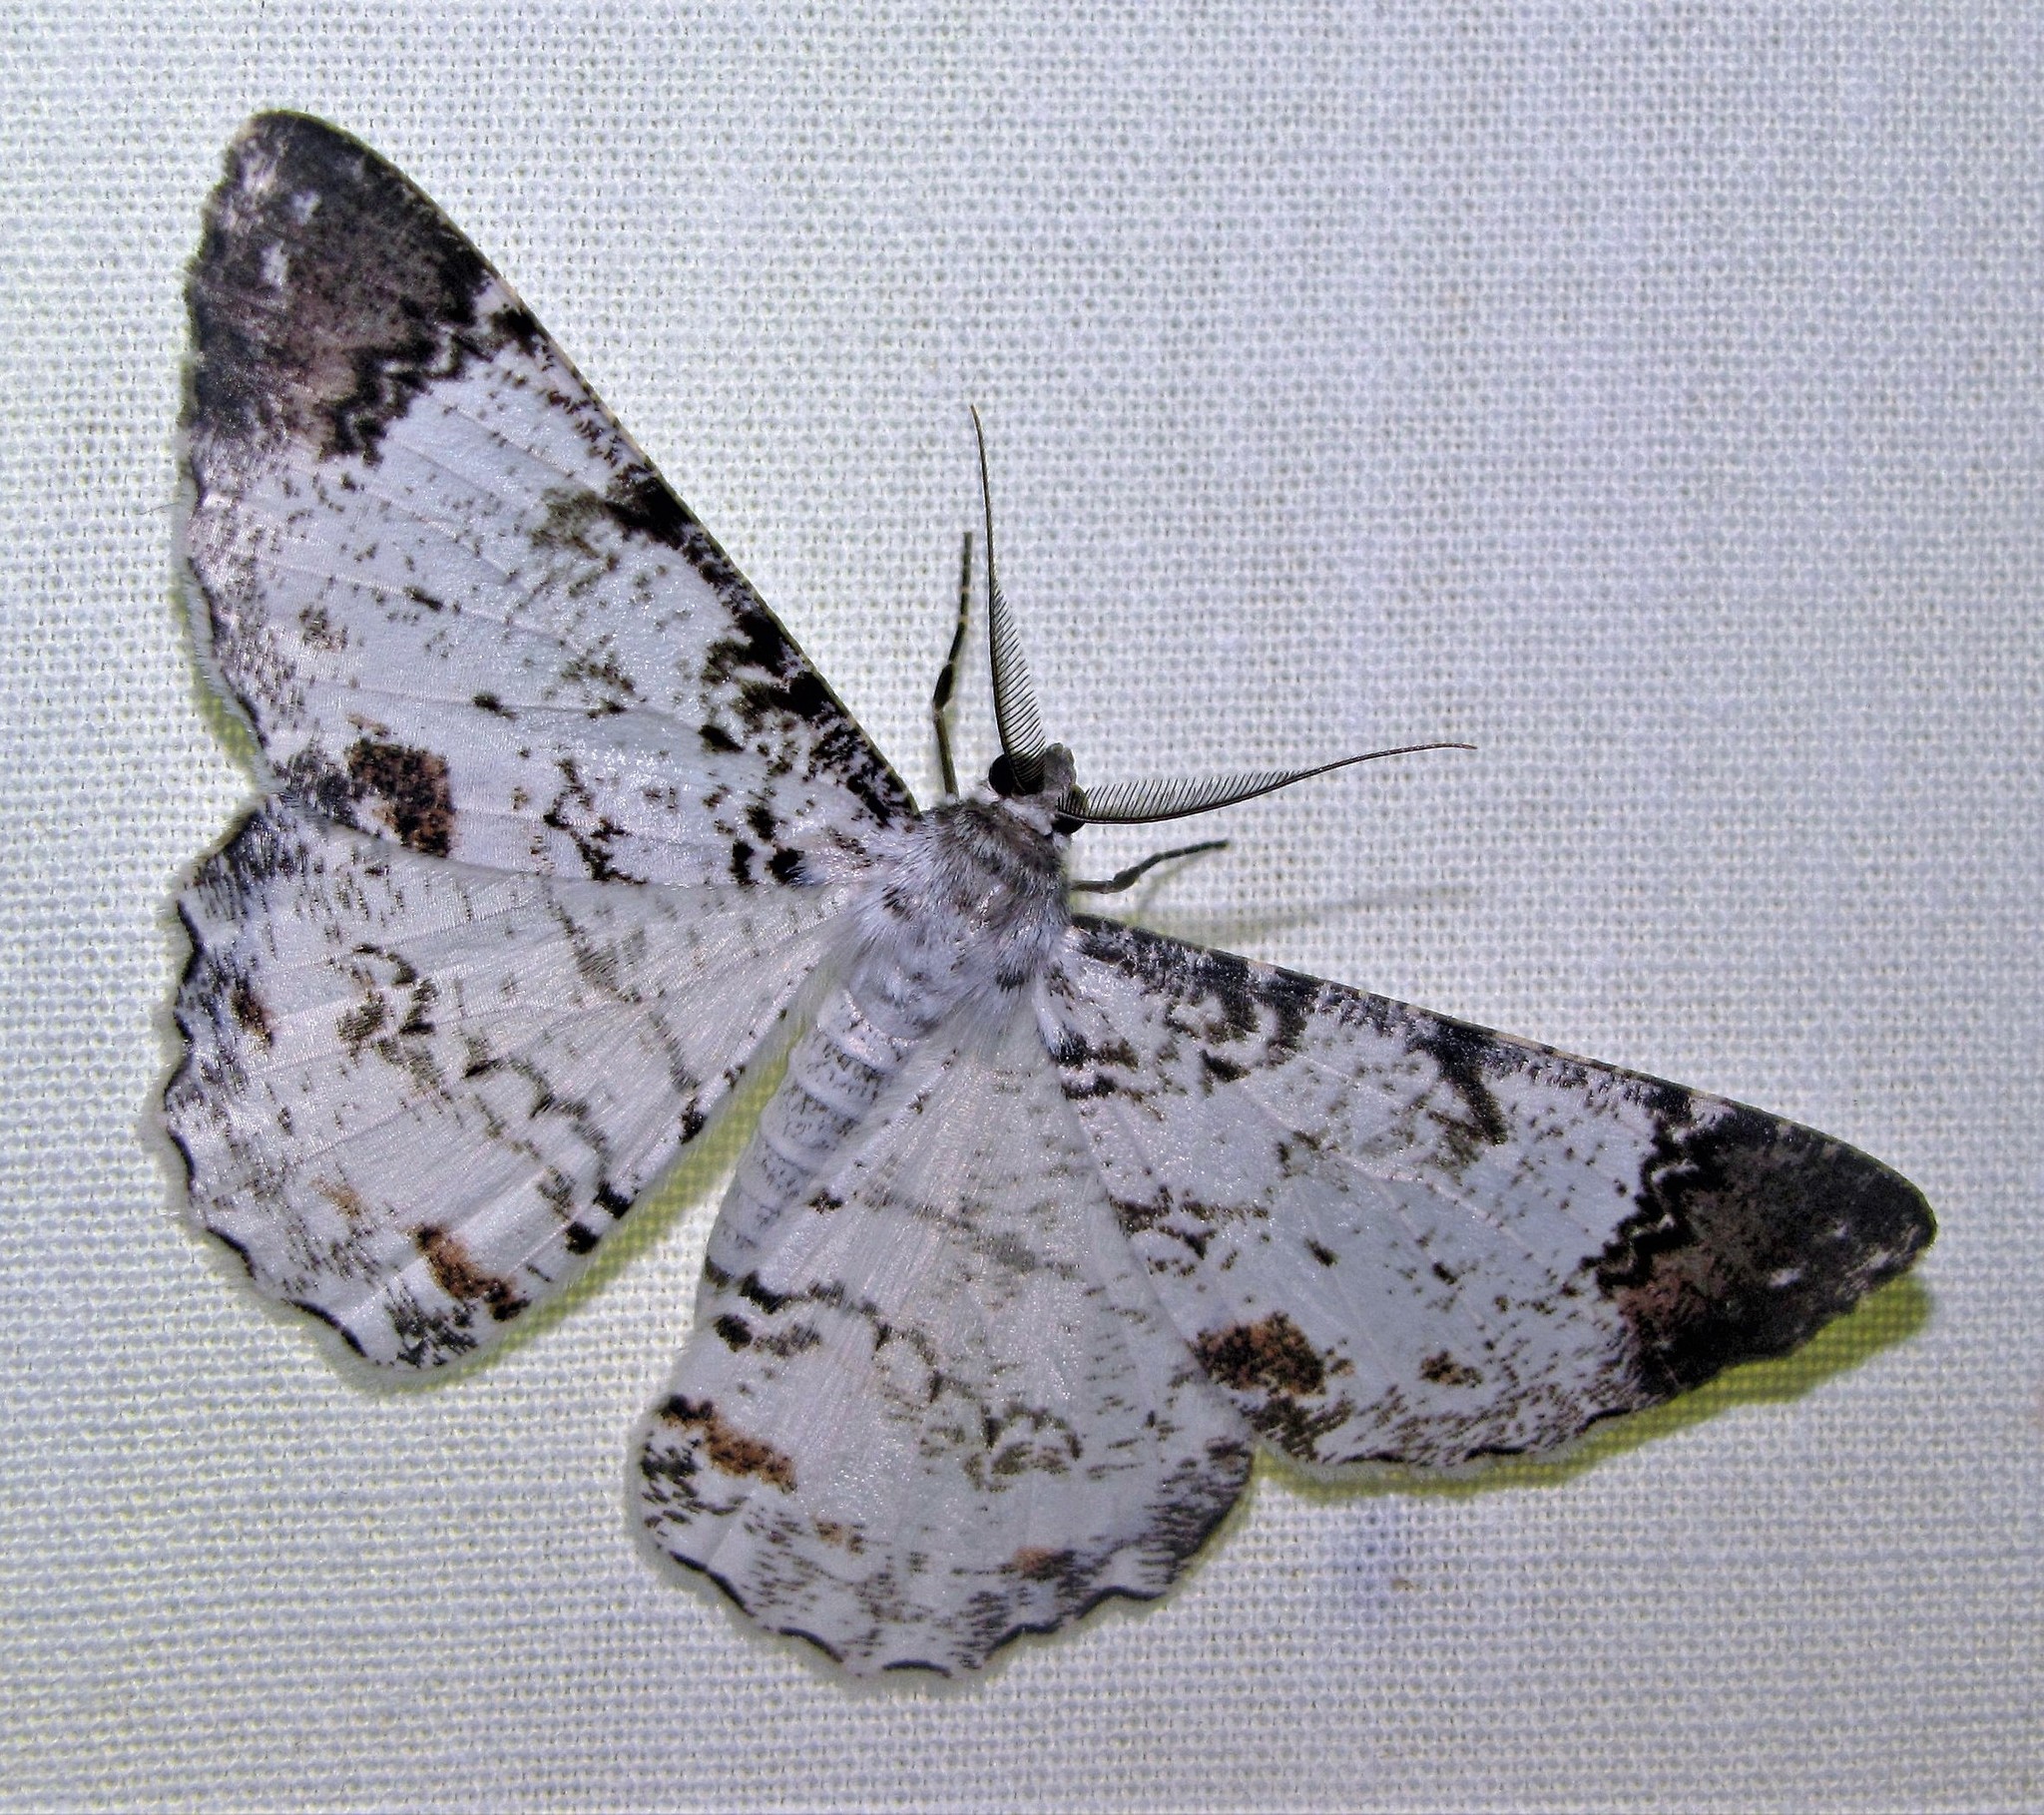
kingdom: Animalia
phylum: Arthropoda
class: Insecta
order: Lepidoptera
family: Geometridae
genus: Epimecis
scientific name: Epimecis puellaria
